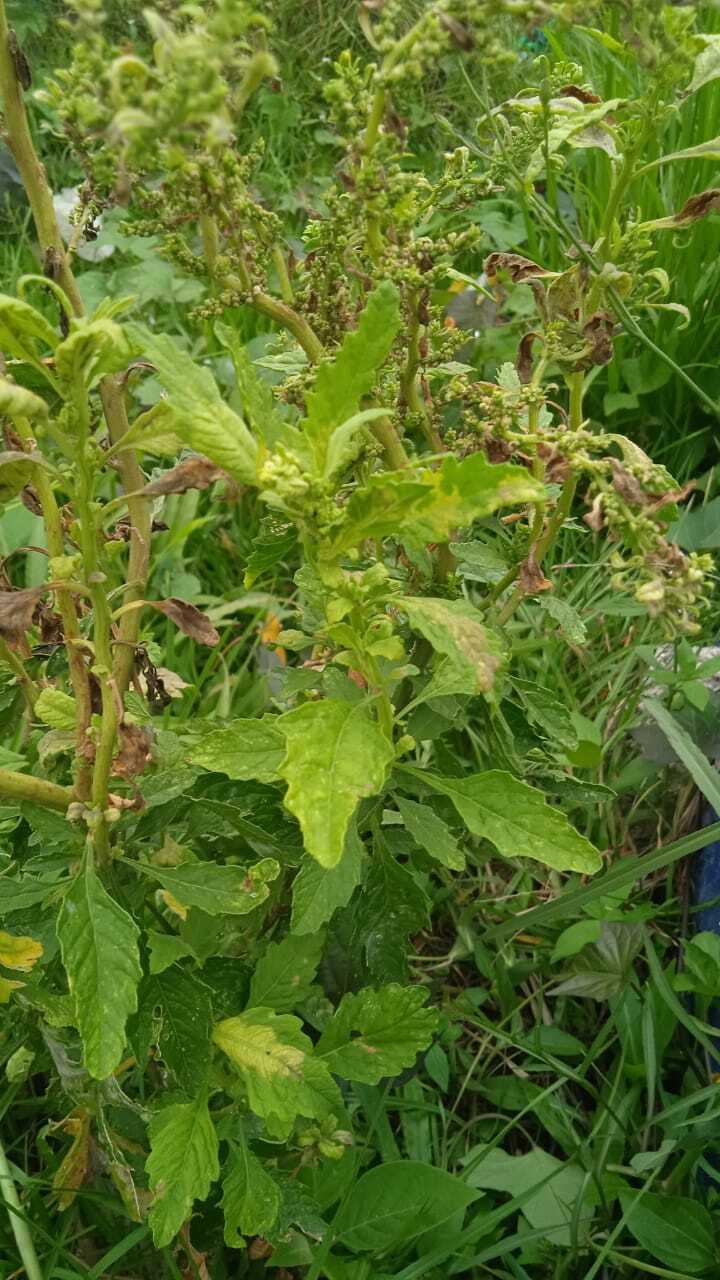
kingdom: Plantae
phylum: Tracheophyta
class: Magnoliopsida
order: Caryophyllales
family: Amaranthaceae
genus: Dysphania
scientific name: Dysphania ambrosioides
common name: Wormseed
